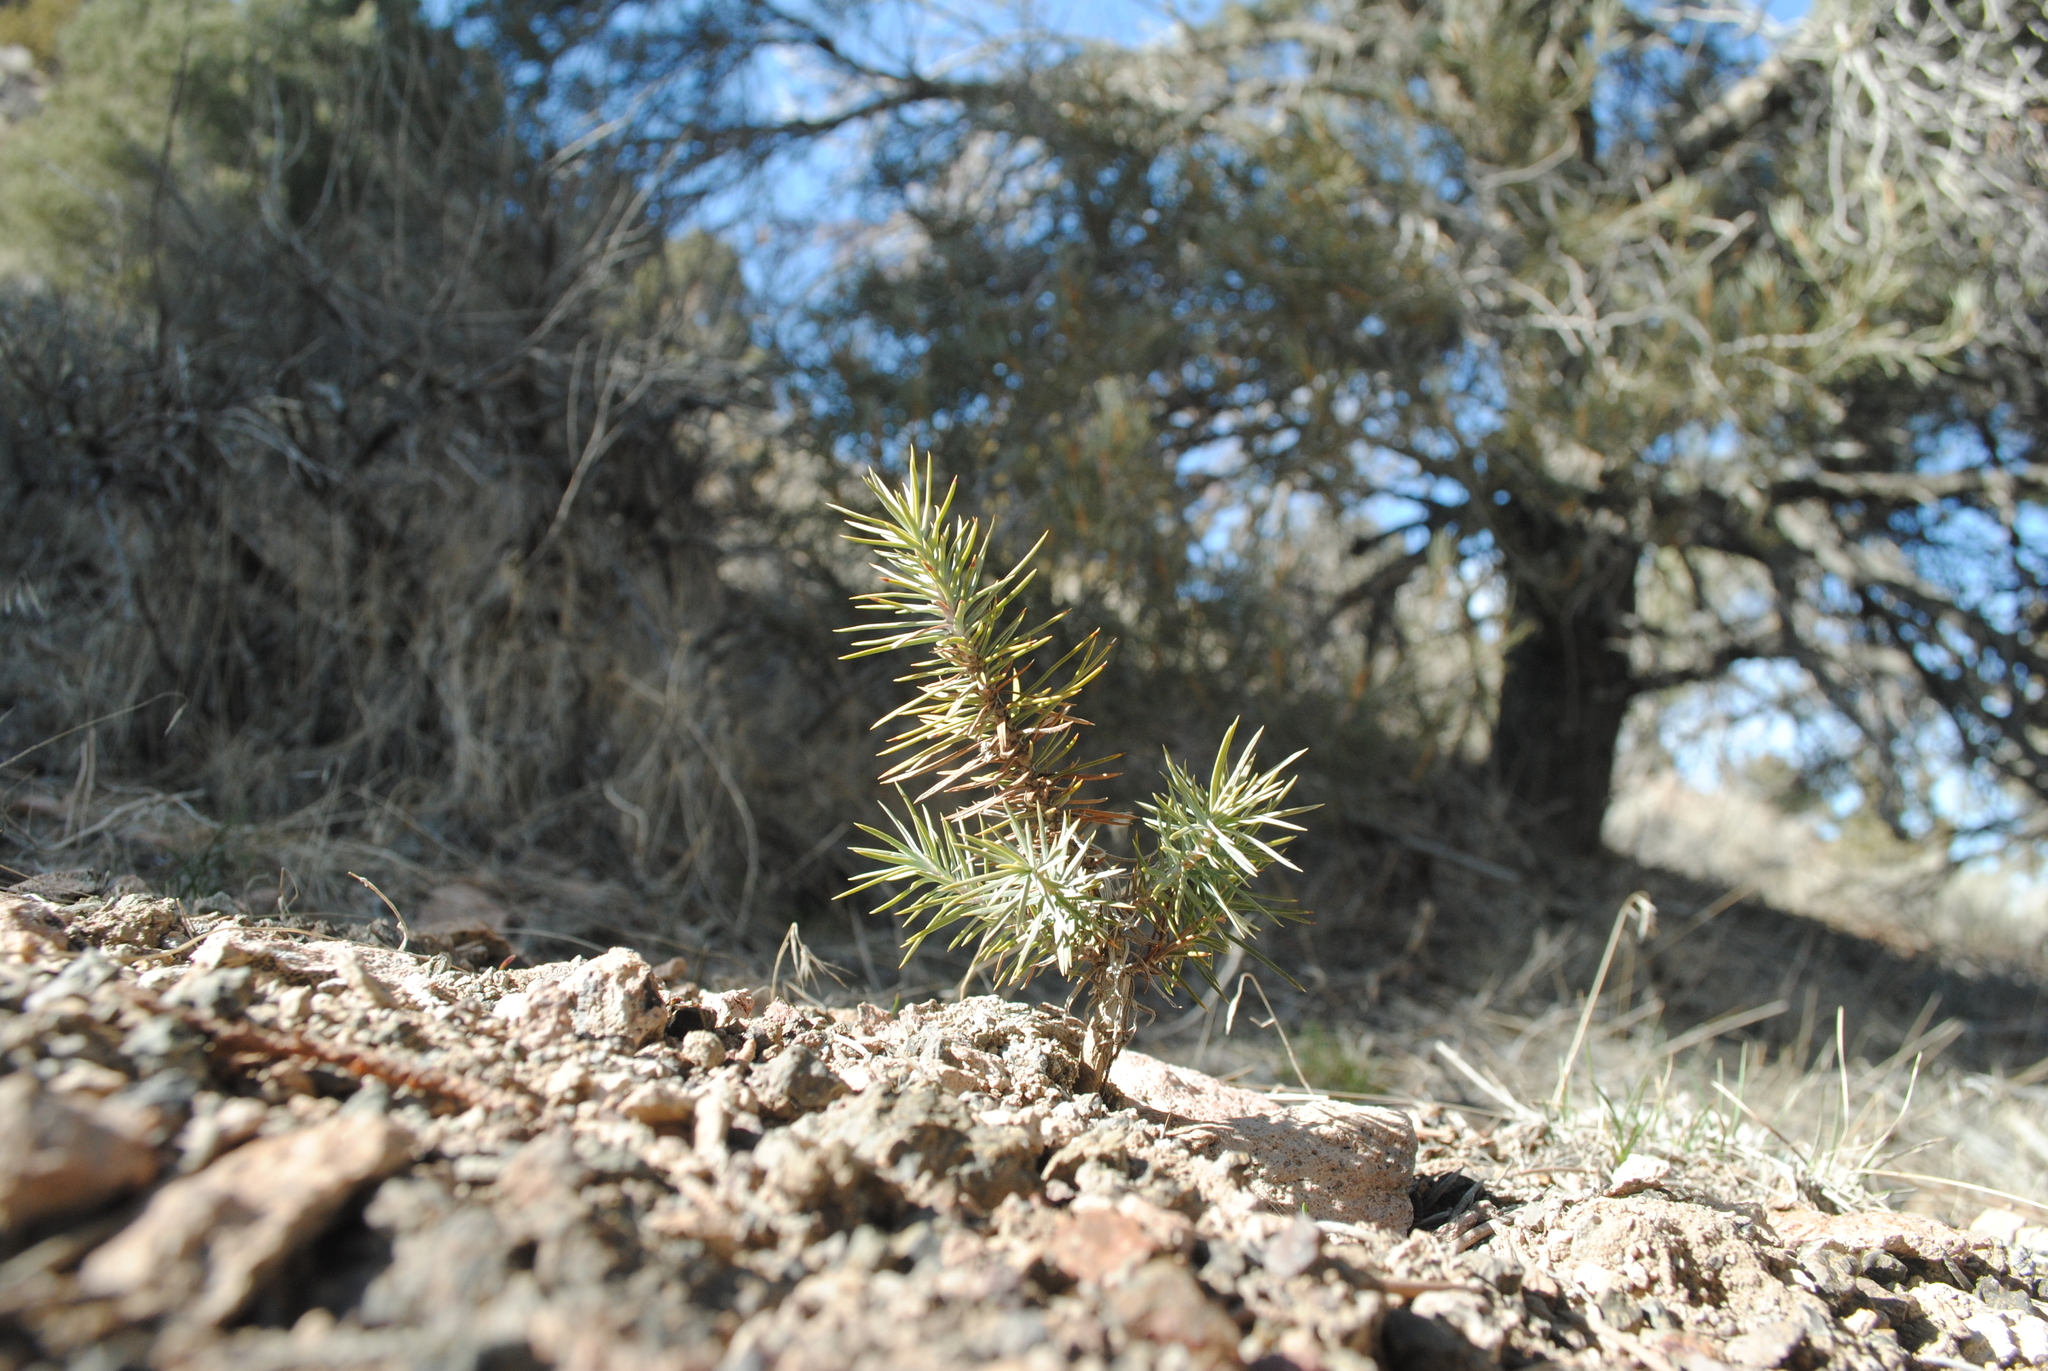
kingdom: Plantae
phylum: Tracheophyta
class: Pinopsida
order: Pinales
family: Pinaceae
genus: Pinus
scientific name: Pinus monophylla
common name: One-leaved nut pine
